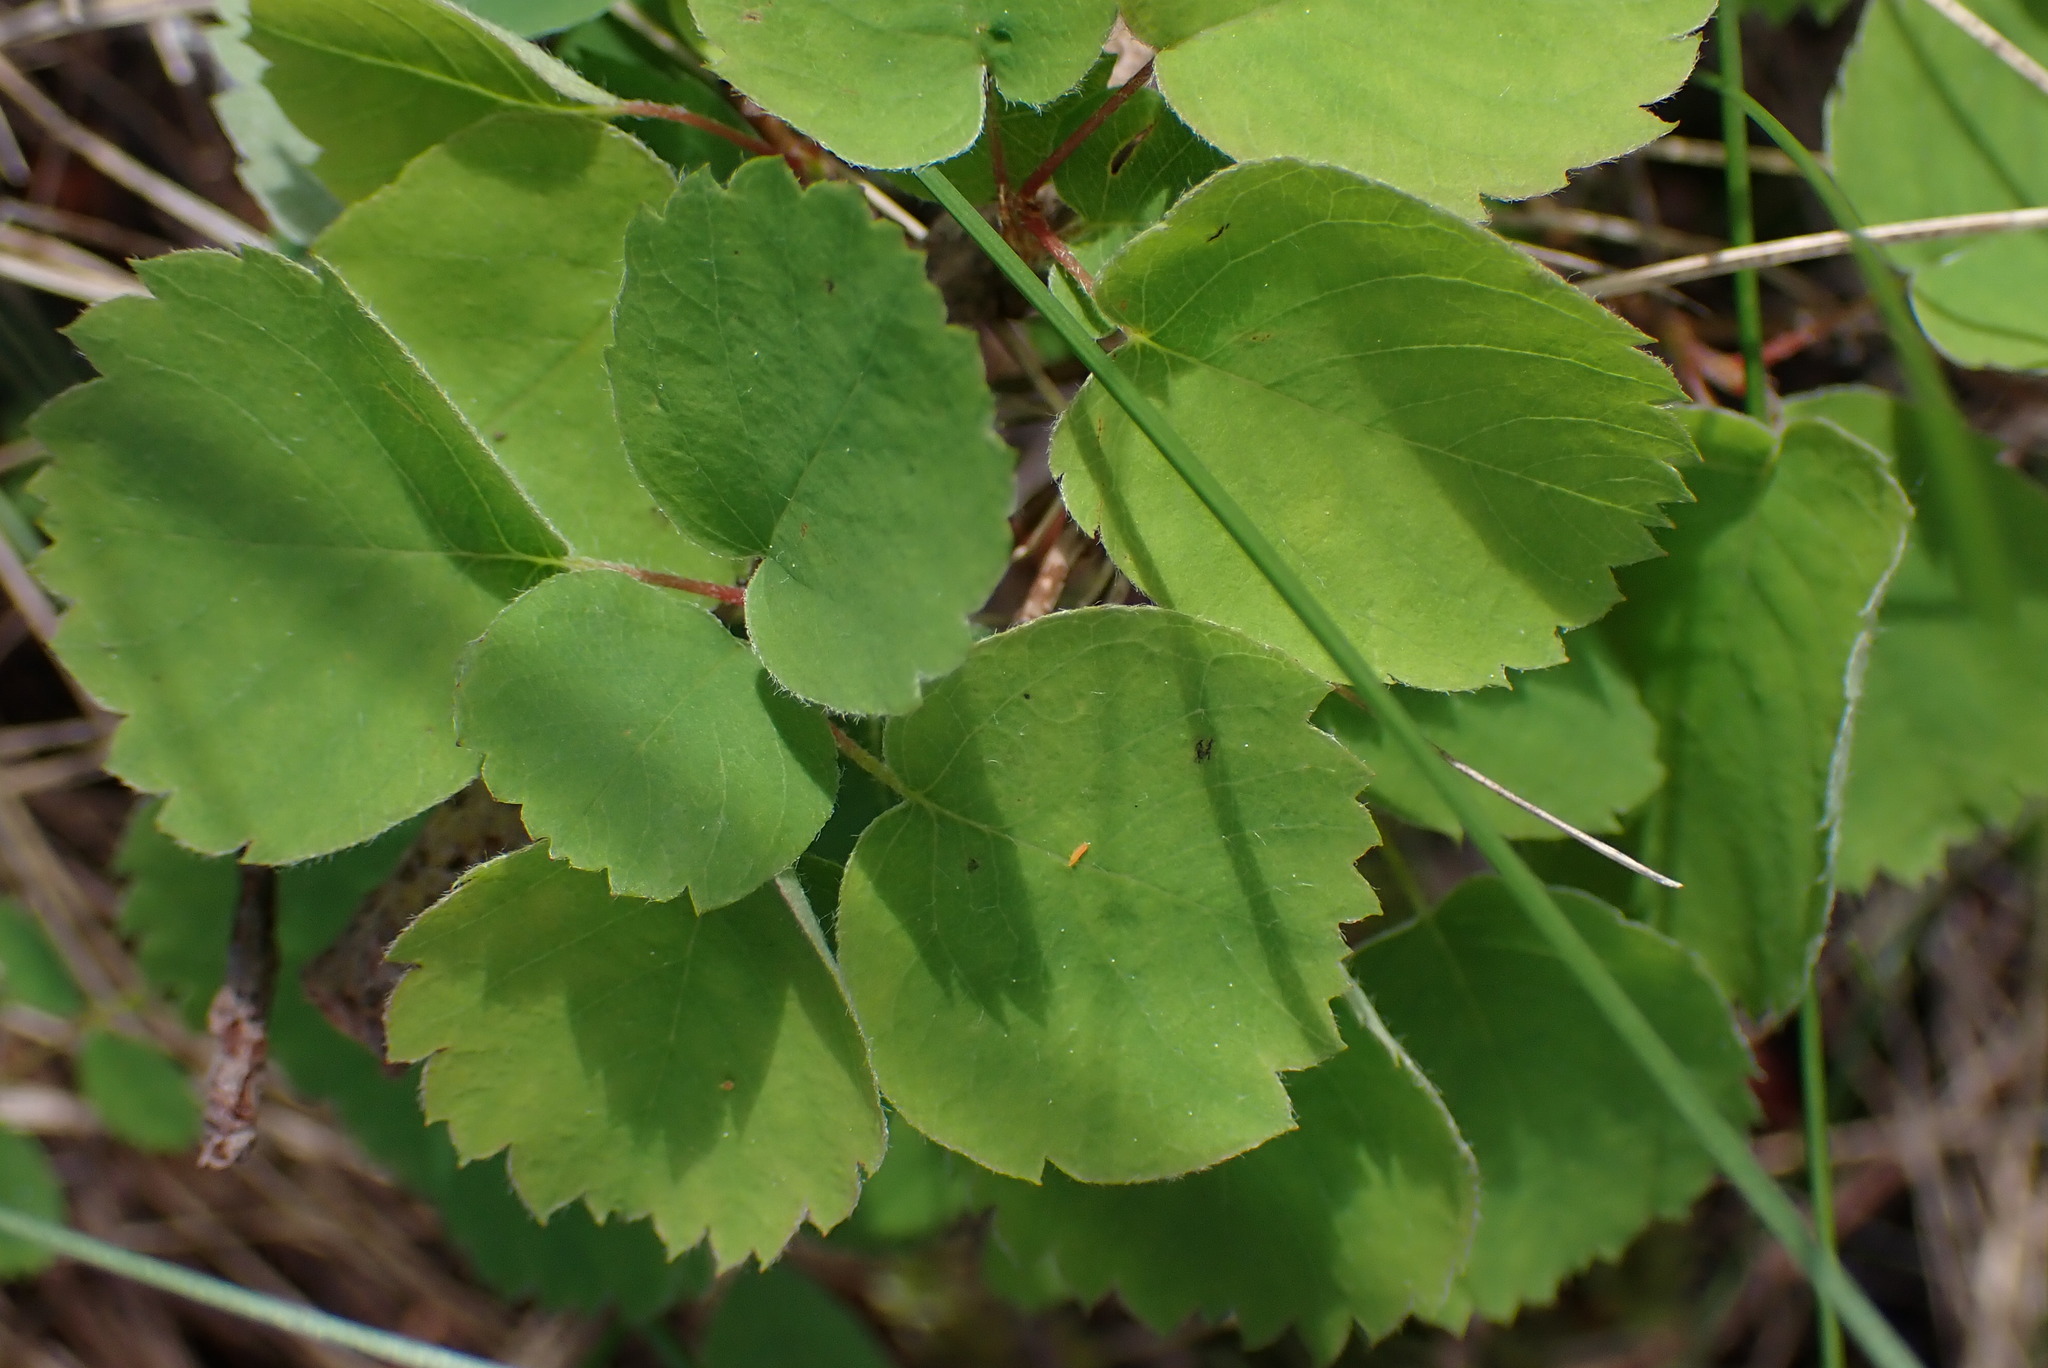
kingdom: Plantae
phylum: Tracheophyta
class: Magnoliopsida
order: Rosales
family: Rosaceae
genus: Amelanchier
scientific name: Amelanchier alnifolia
